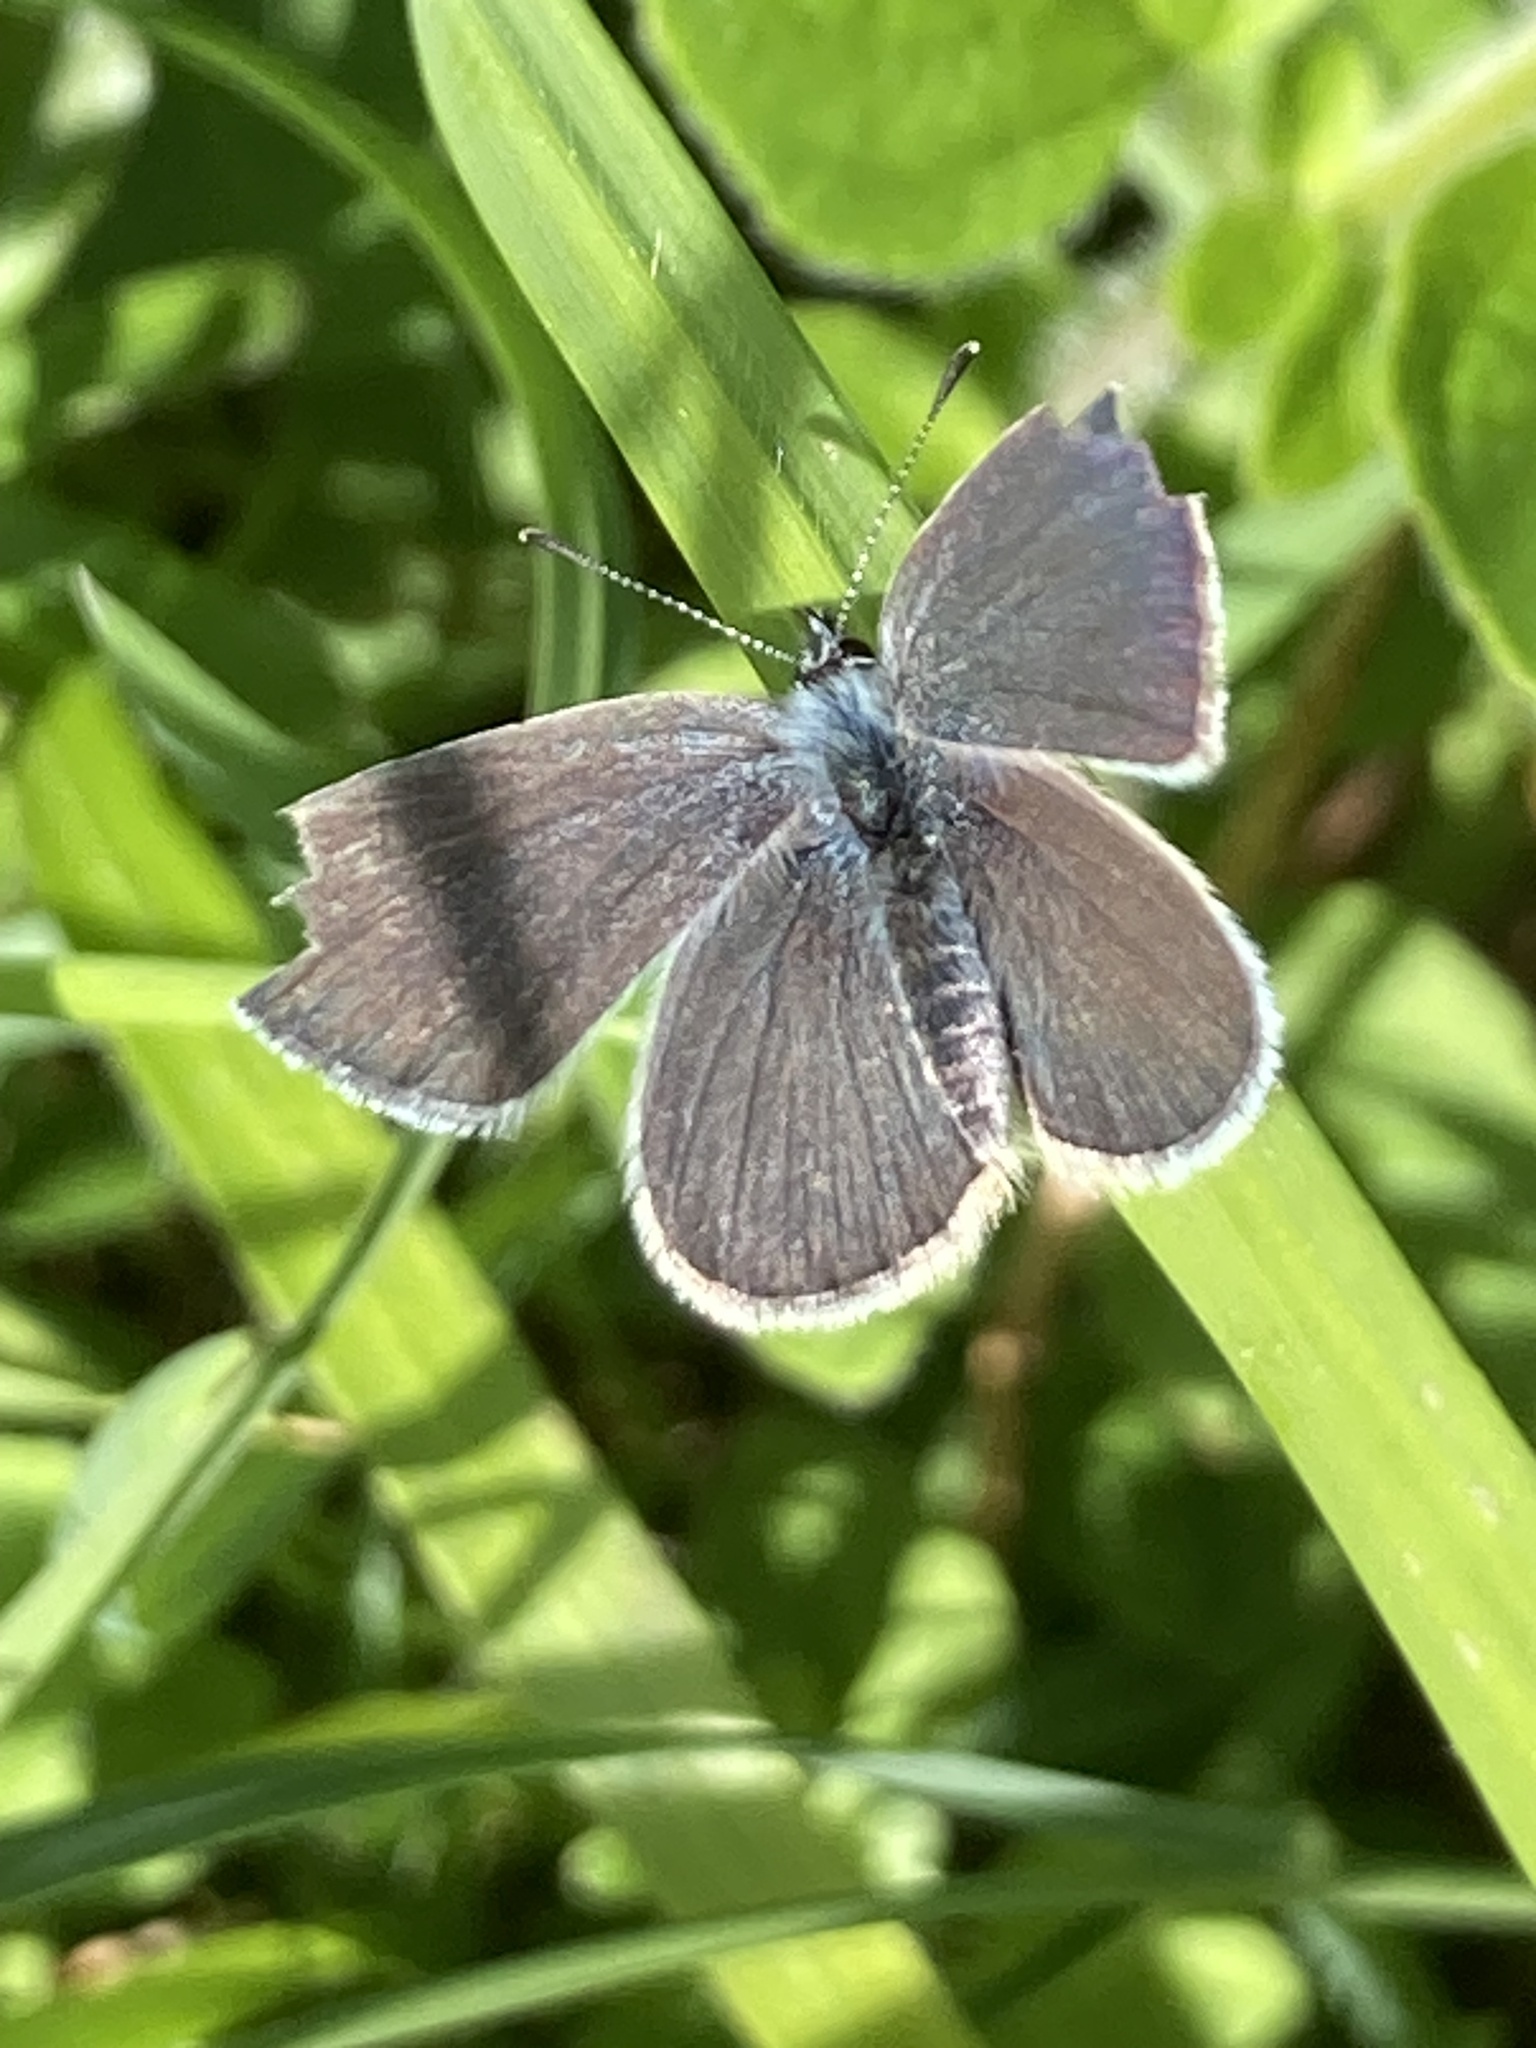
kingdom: Animalia
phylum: Arthropoda
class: Insecta
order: Lepidoptera
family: Lycaenidae
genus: Cupido
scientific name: Cupido minimus
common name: Small blue
